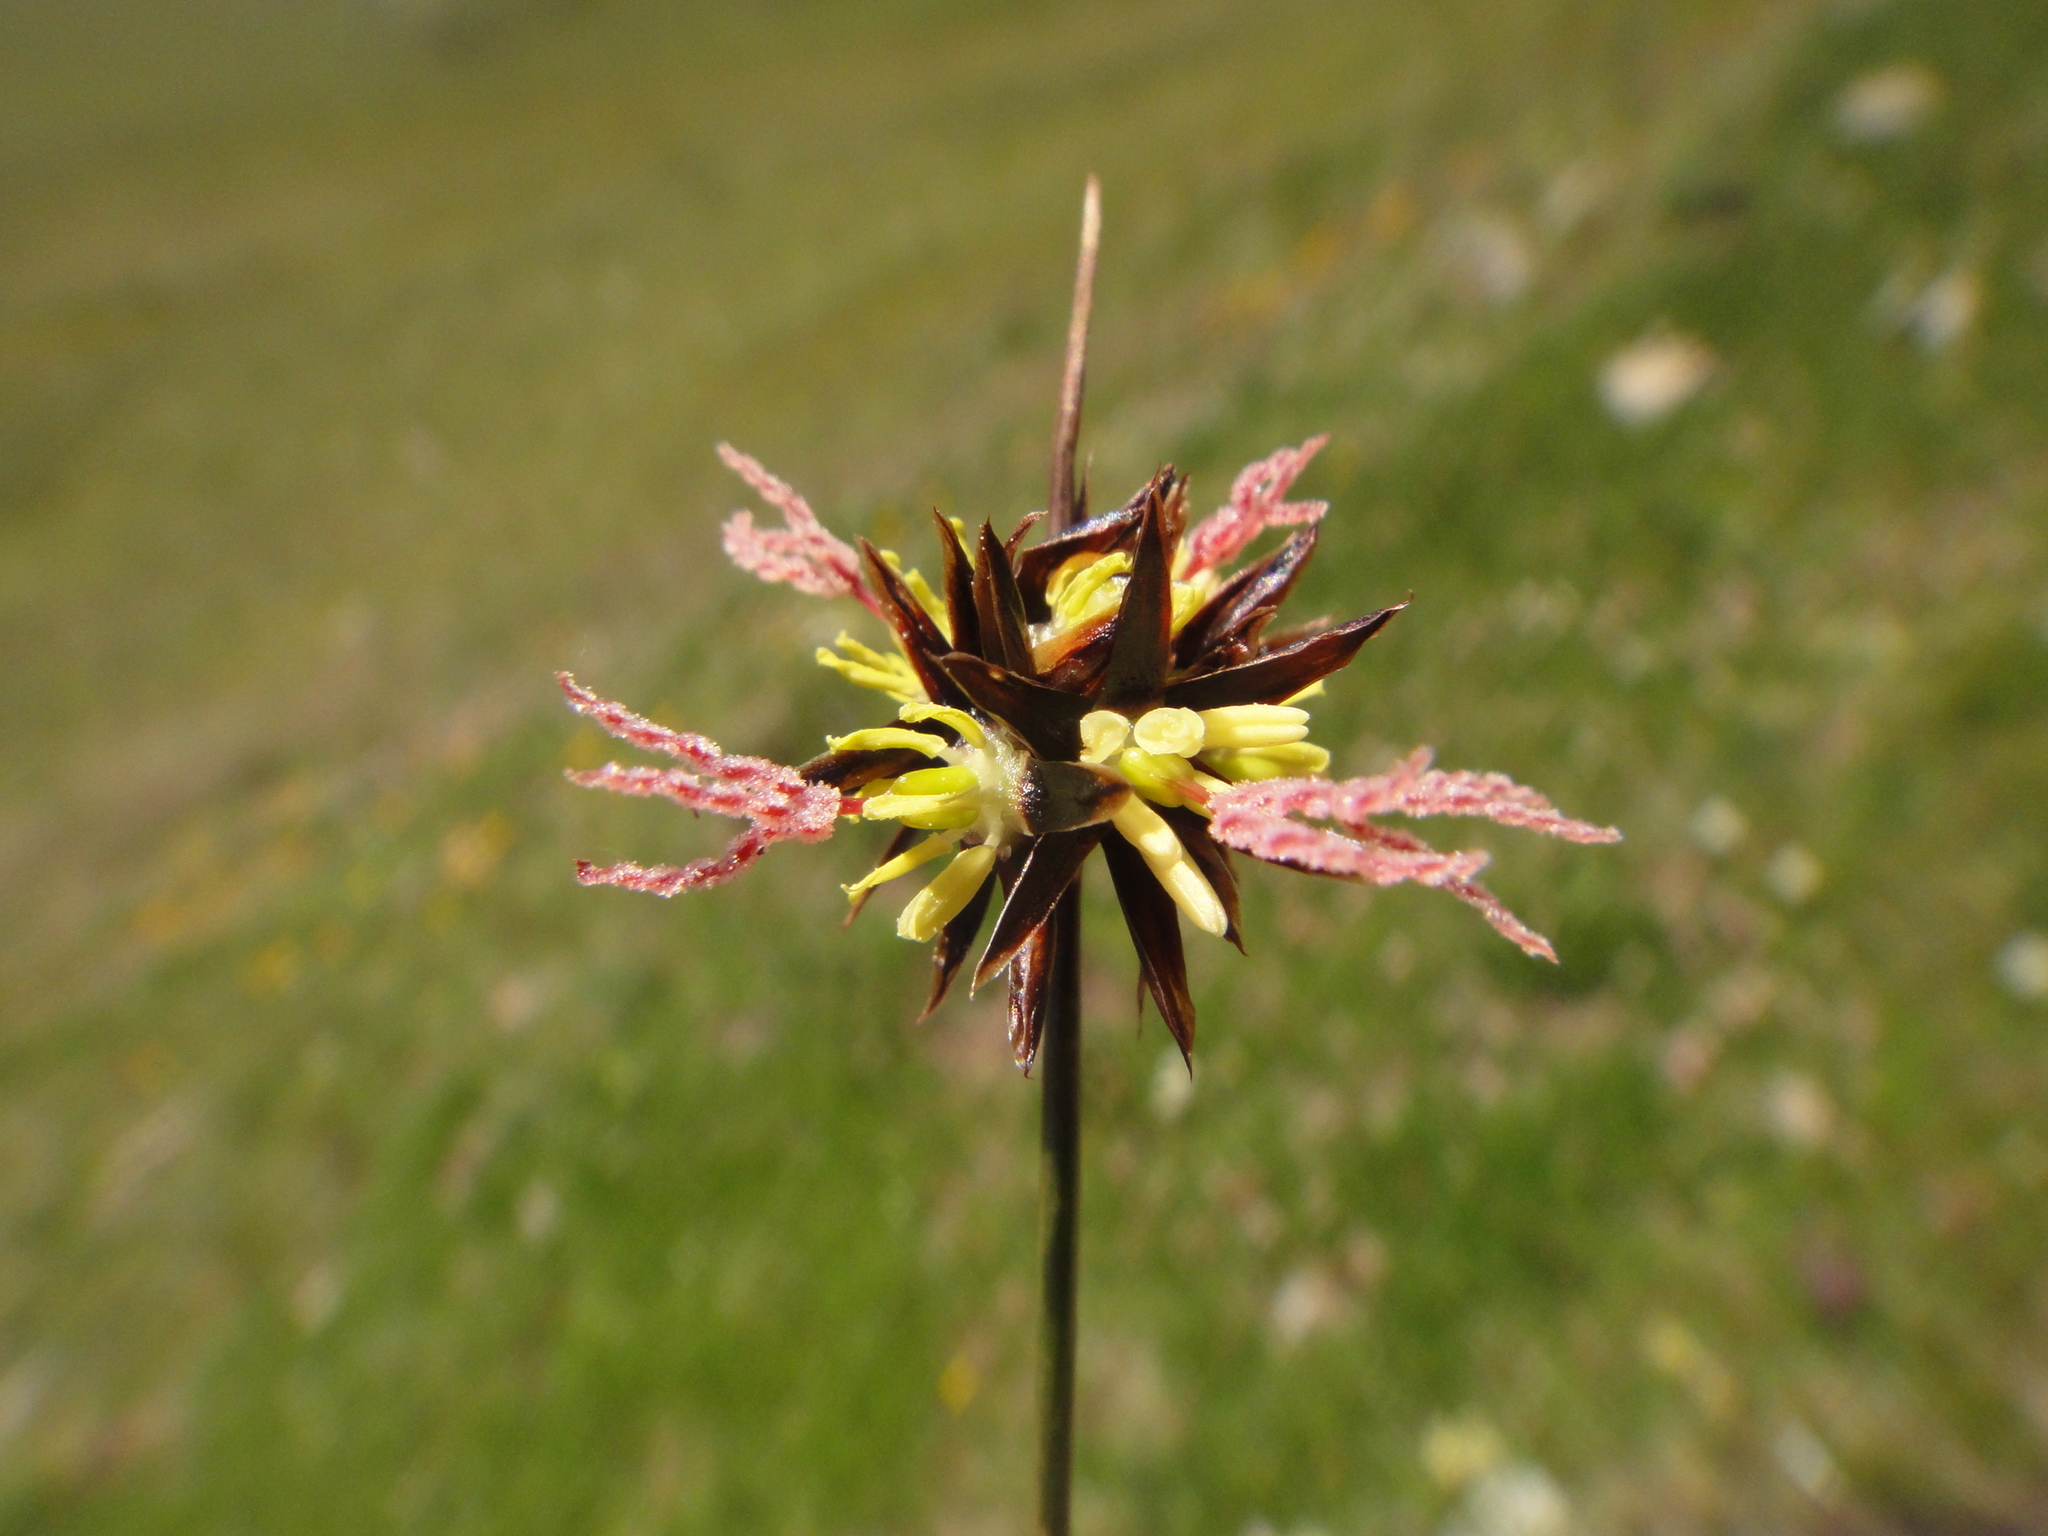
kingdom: Plantae
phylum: Tracheophyta
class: Liliopsida
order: Poales
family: Juncaceae
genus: Juncus
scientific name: Juncus jacquinii
